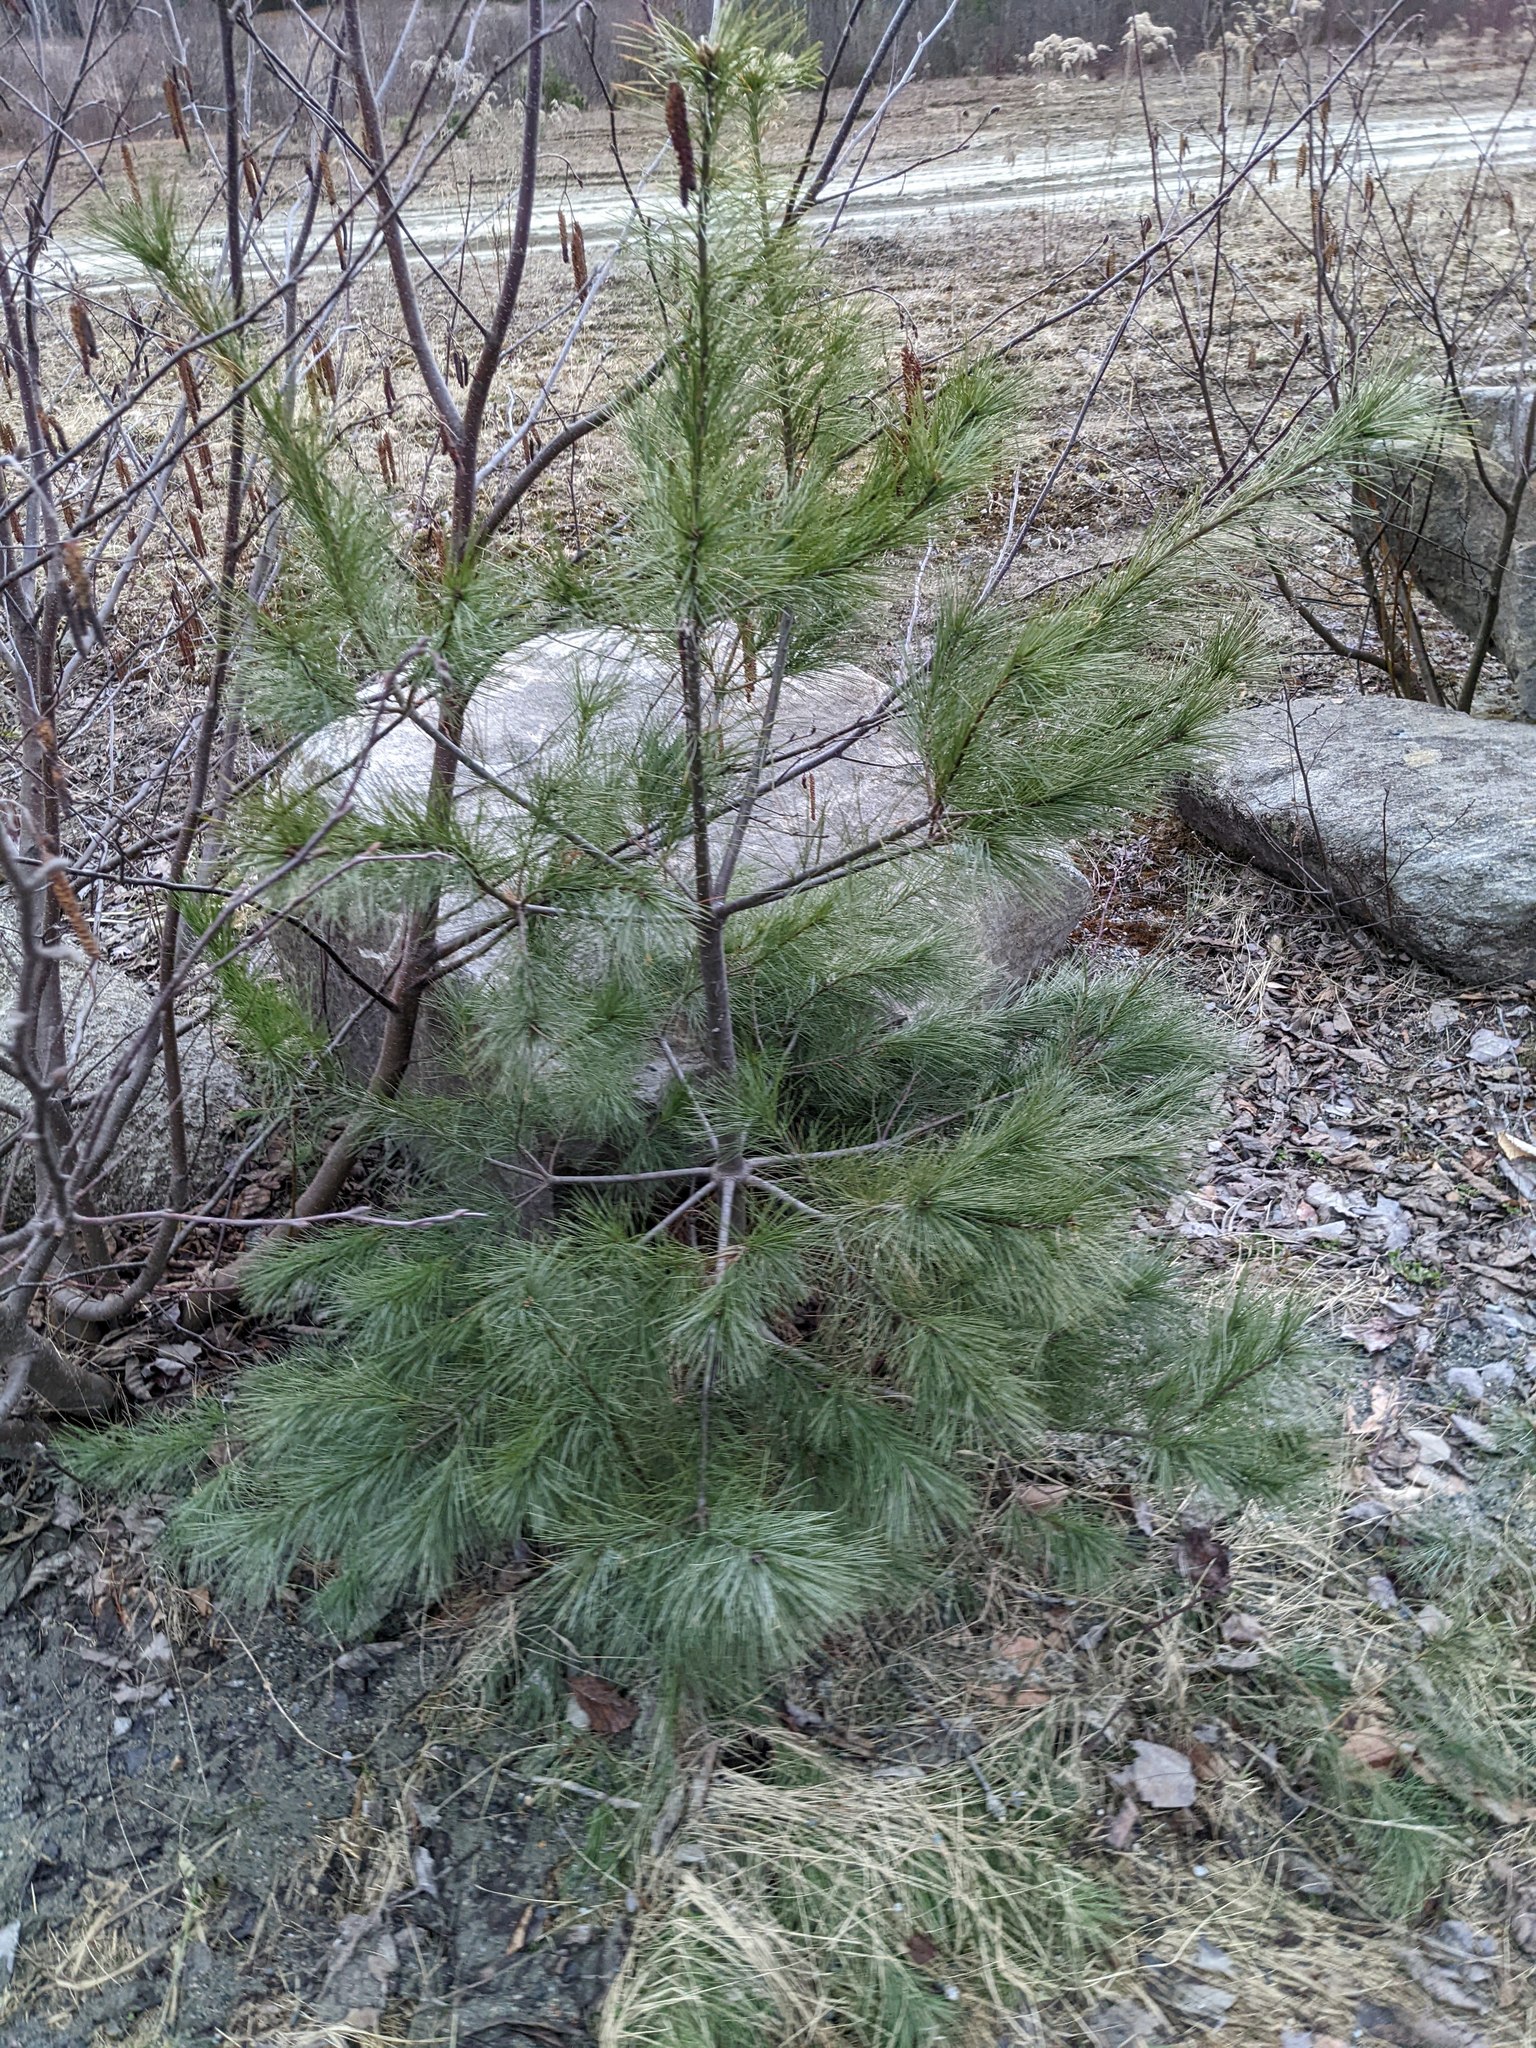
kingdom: Plantae
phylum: Tracheophyta
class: Pinopsida
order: Pinales
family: Pinaceae
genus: Pinus
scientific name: Pinus strobus
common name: Weymouth pine
